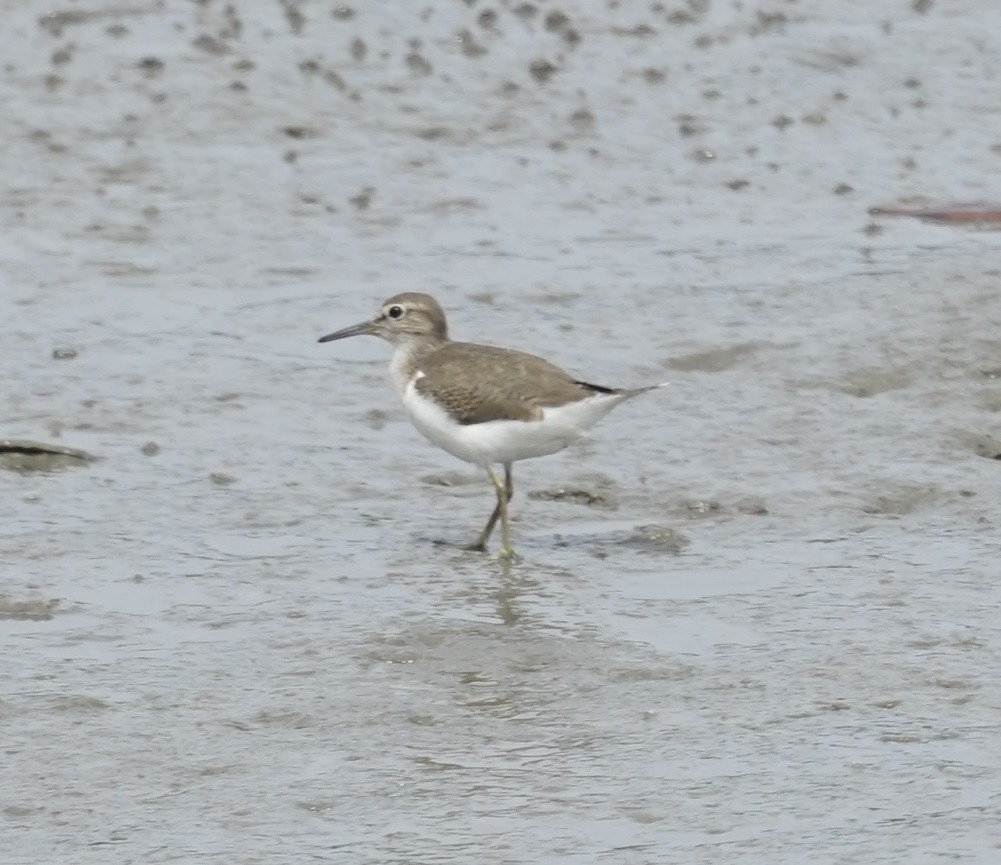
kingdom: Animalia
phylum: Chordata
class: Aves
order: Charadriiformes
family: Scolopacidae
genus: Actitis
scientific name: Actitis hypoleucos
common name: Common sandpiper
